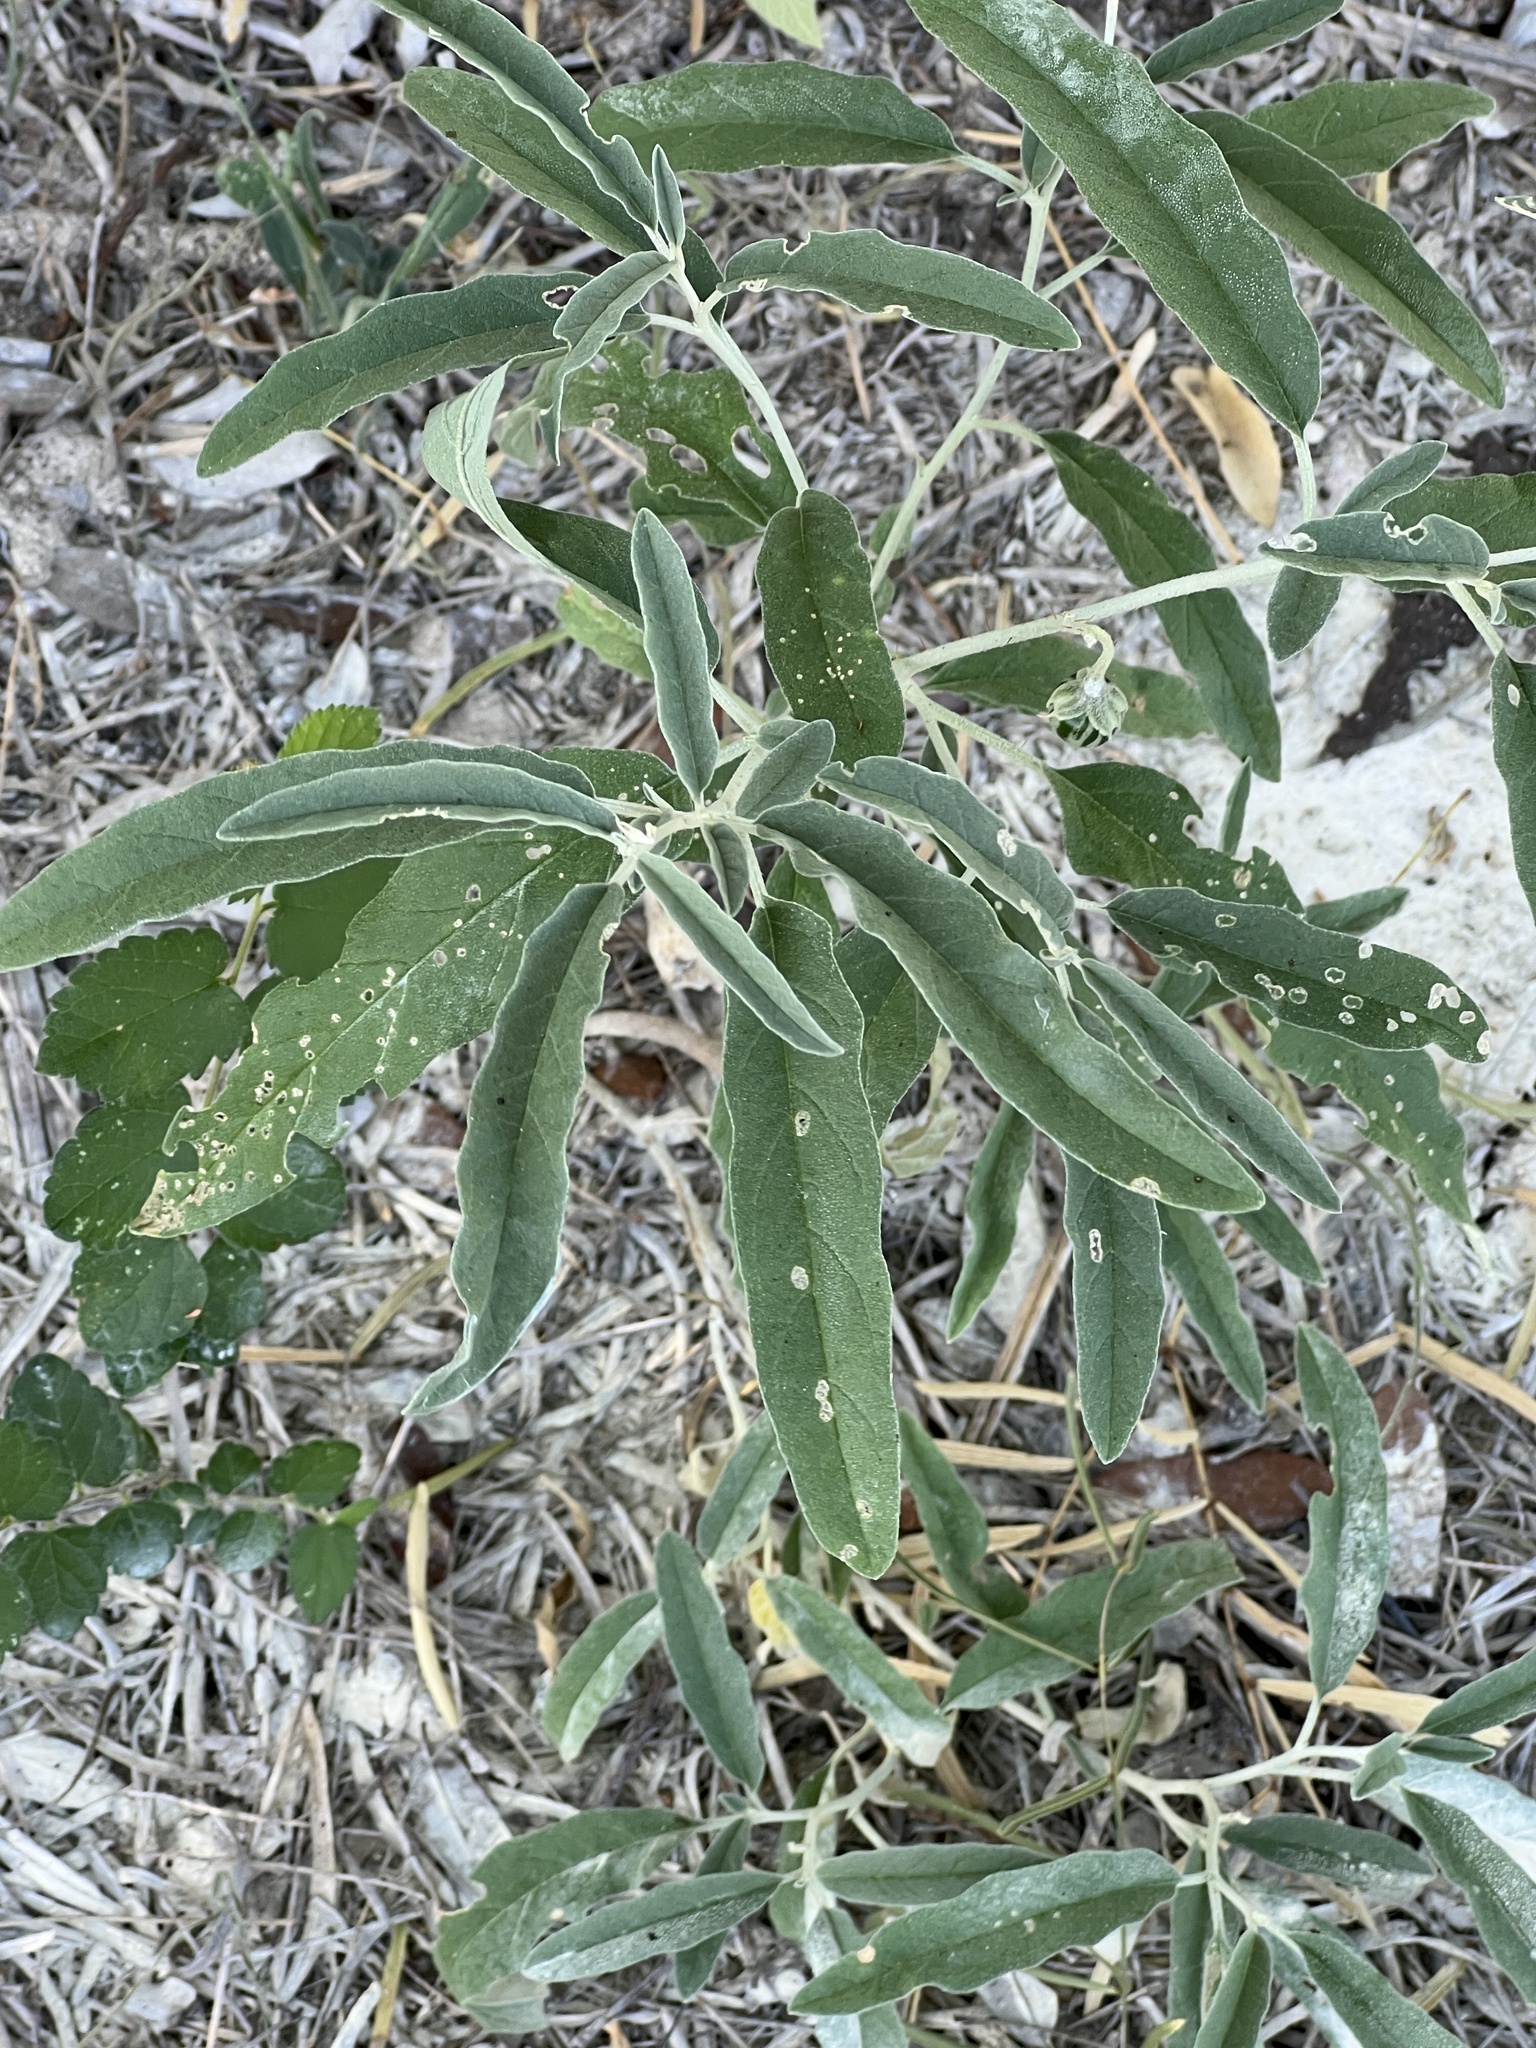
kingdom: Plantae
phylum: Tracheophyta
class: Magnoliopsida
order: Solanales
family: Solanaceae
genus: Solanum
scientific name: Solanum elaeagnifolium
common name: Silverleaf nightshade
